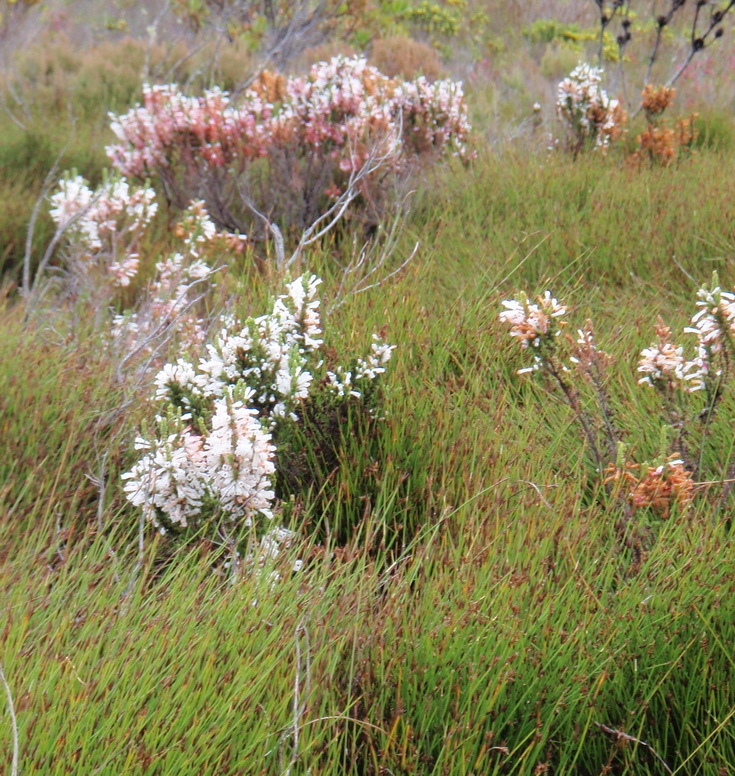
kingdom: Plantae
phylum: Tracheophyta
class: Magnoliopsida
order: Ericales
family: Ericaceae
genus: Erica
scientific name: Erica colorans
